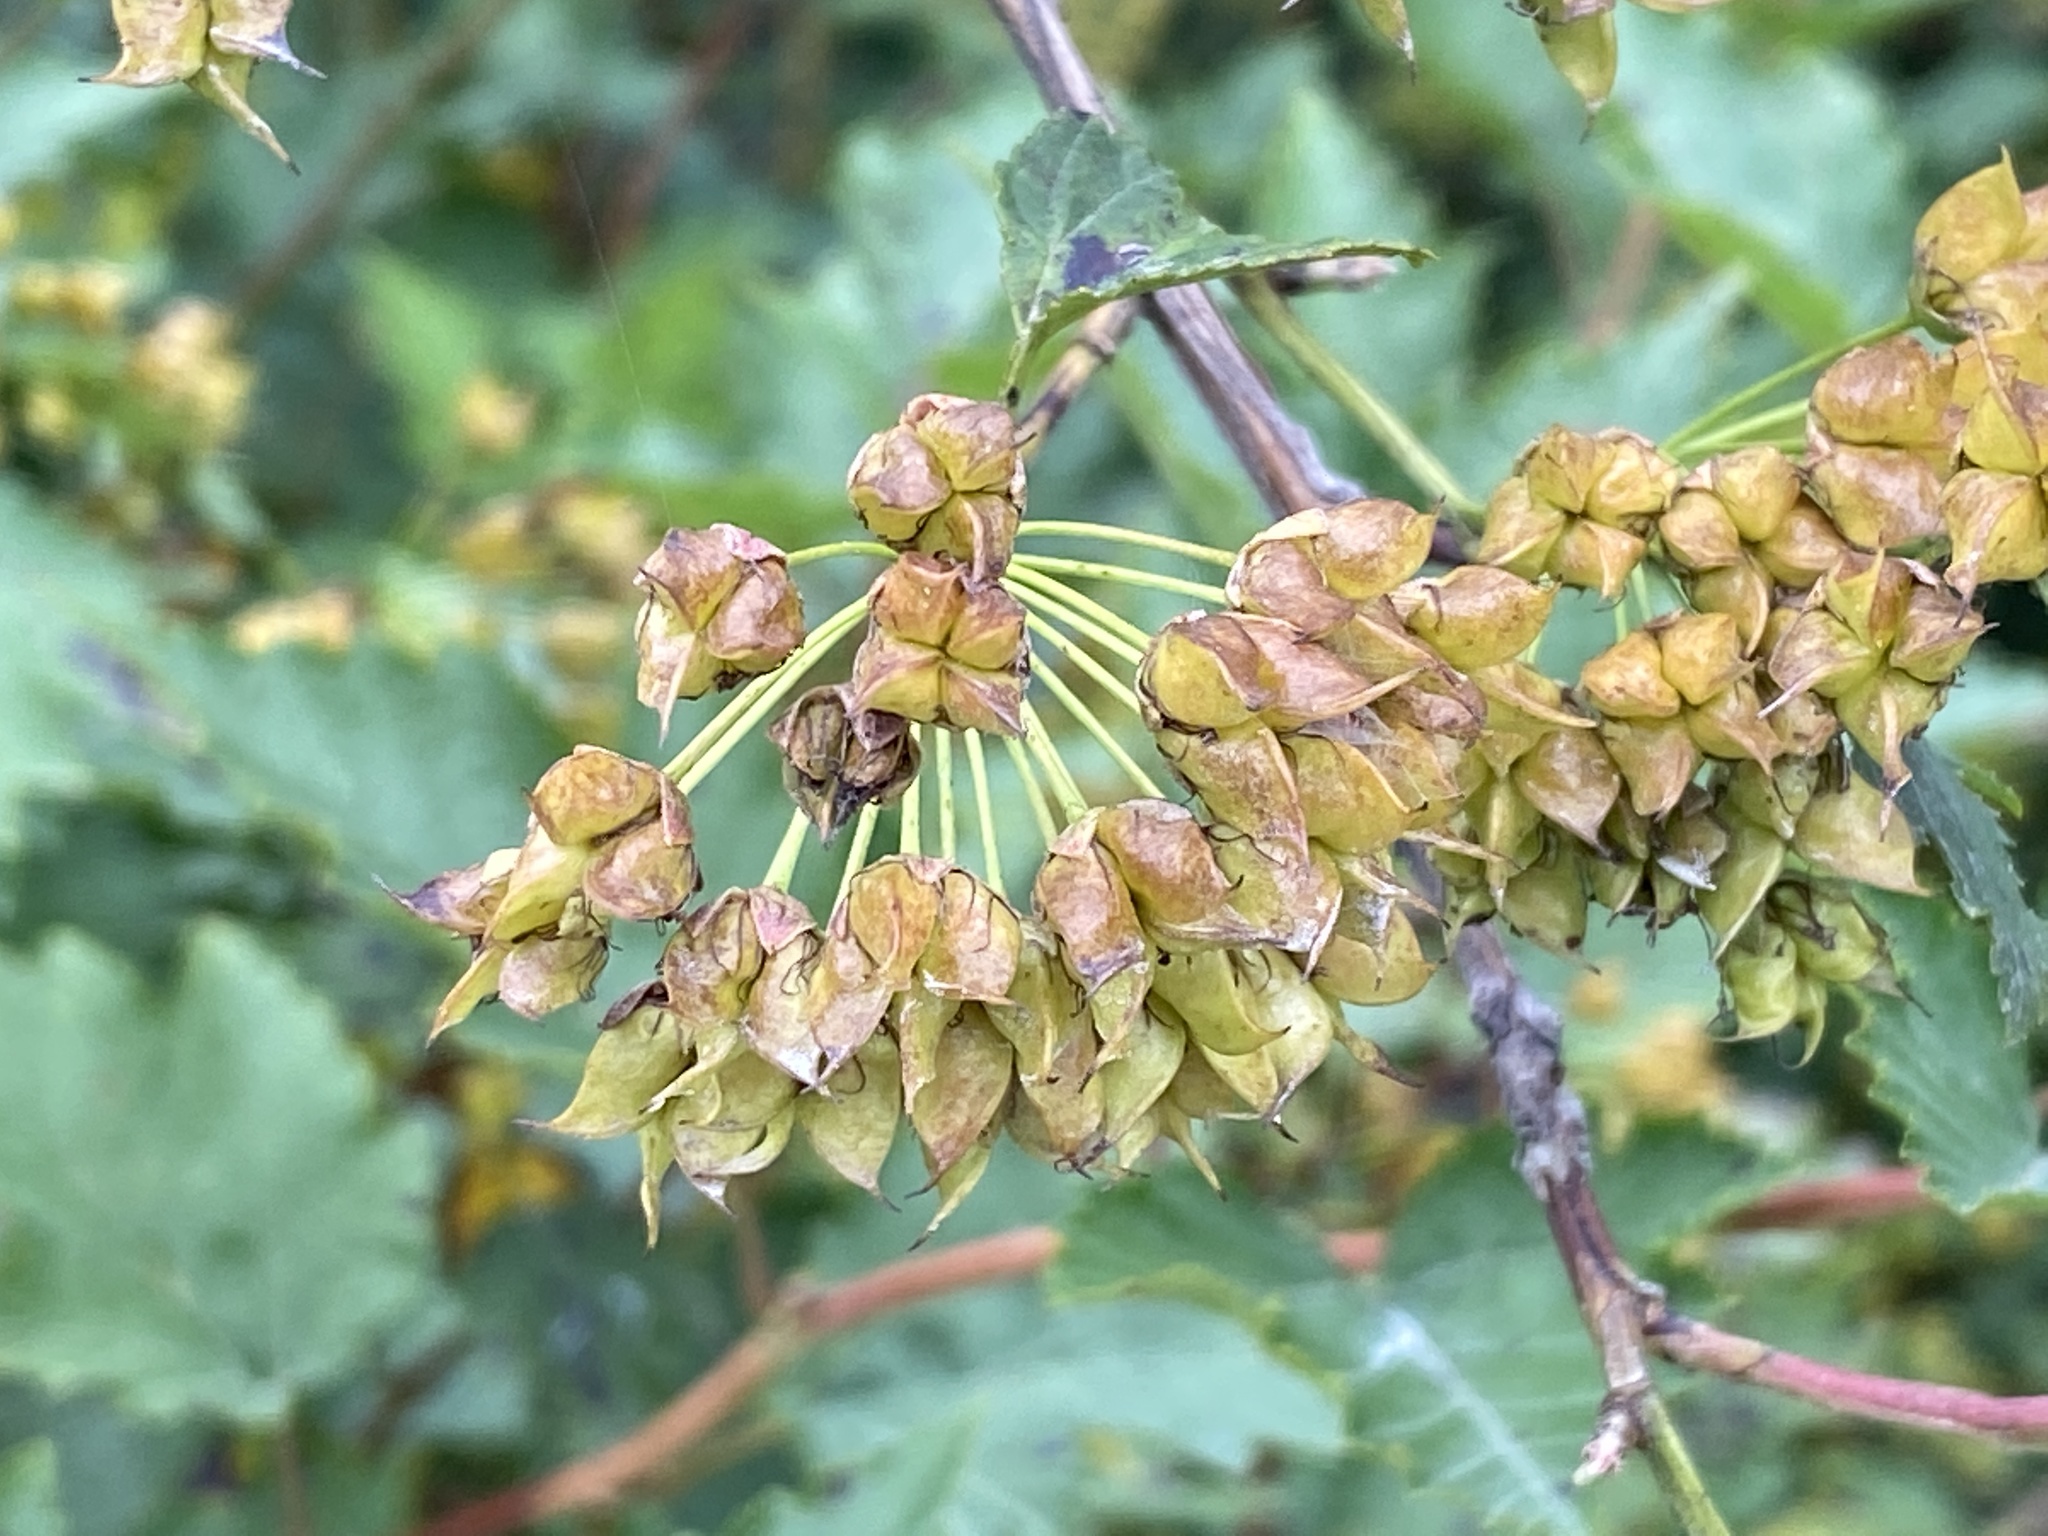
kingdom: Plantae
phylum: Tracheophyta
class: Magnoliopsida
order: Rosales
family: Rosaceae
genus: Physocarpus
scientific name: Physocarpus opulifolius
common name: Ninebark
